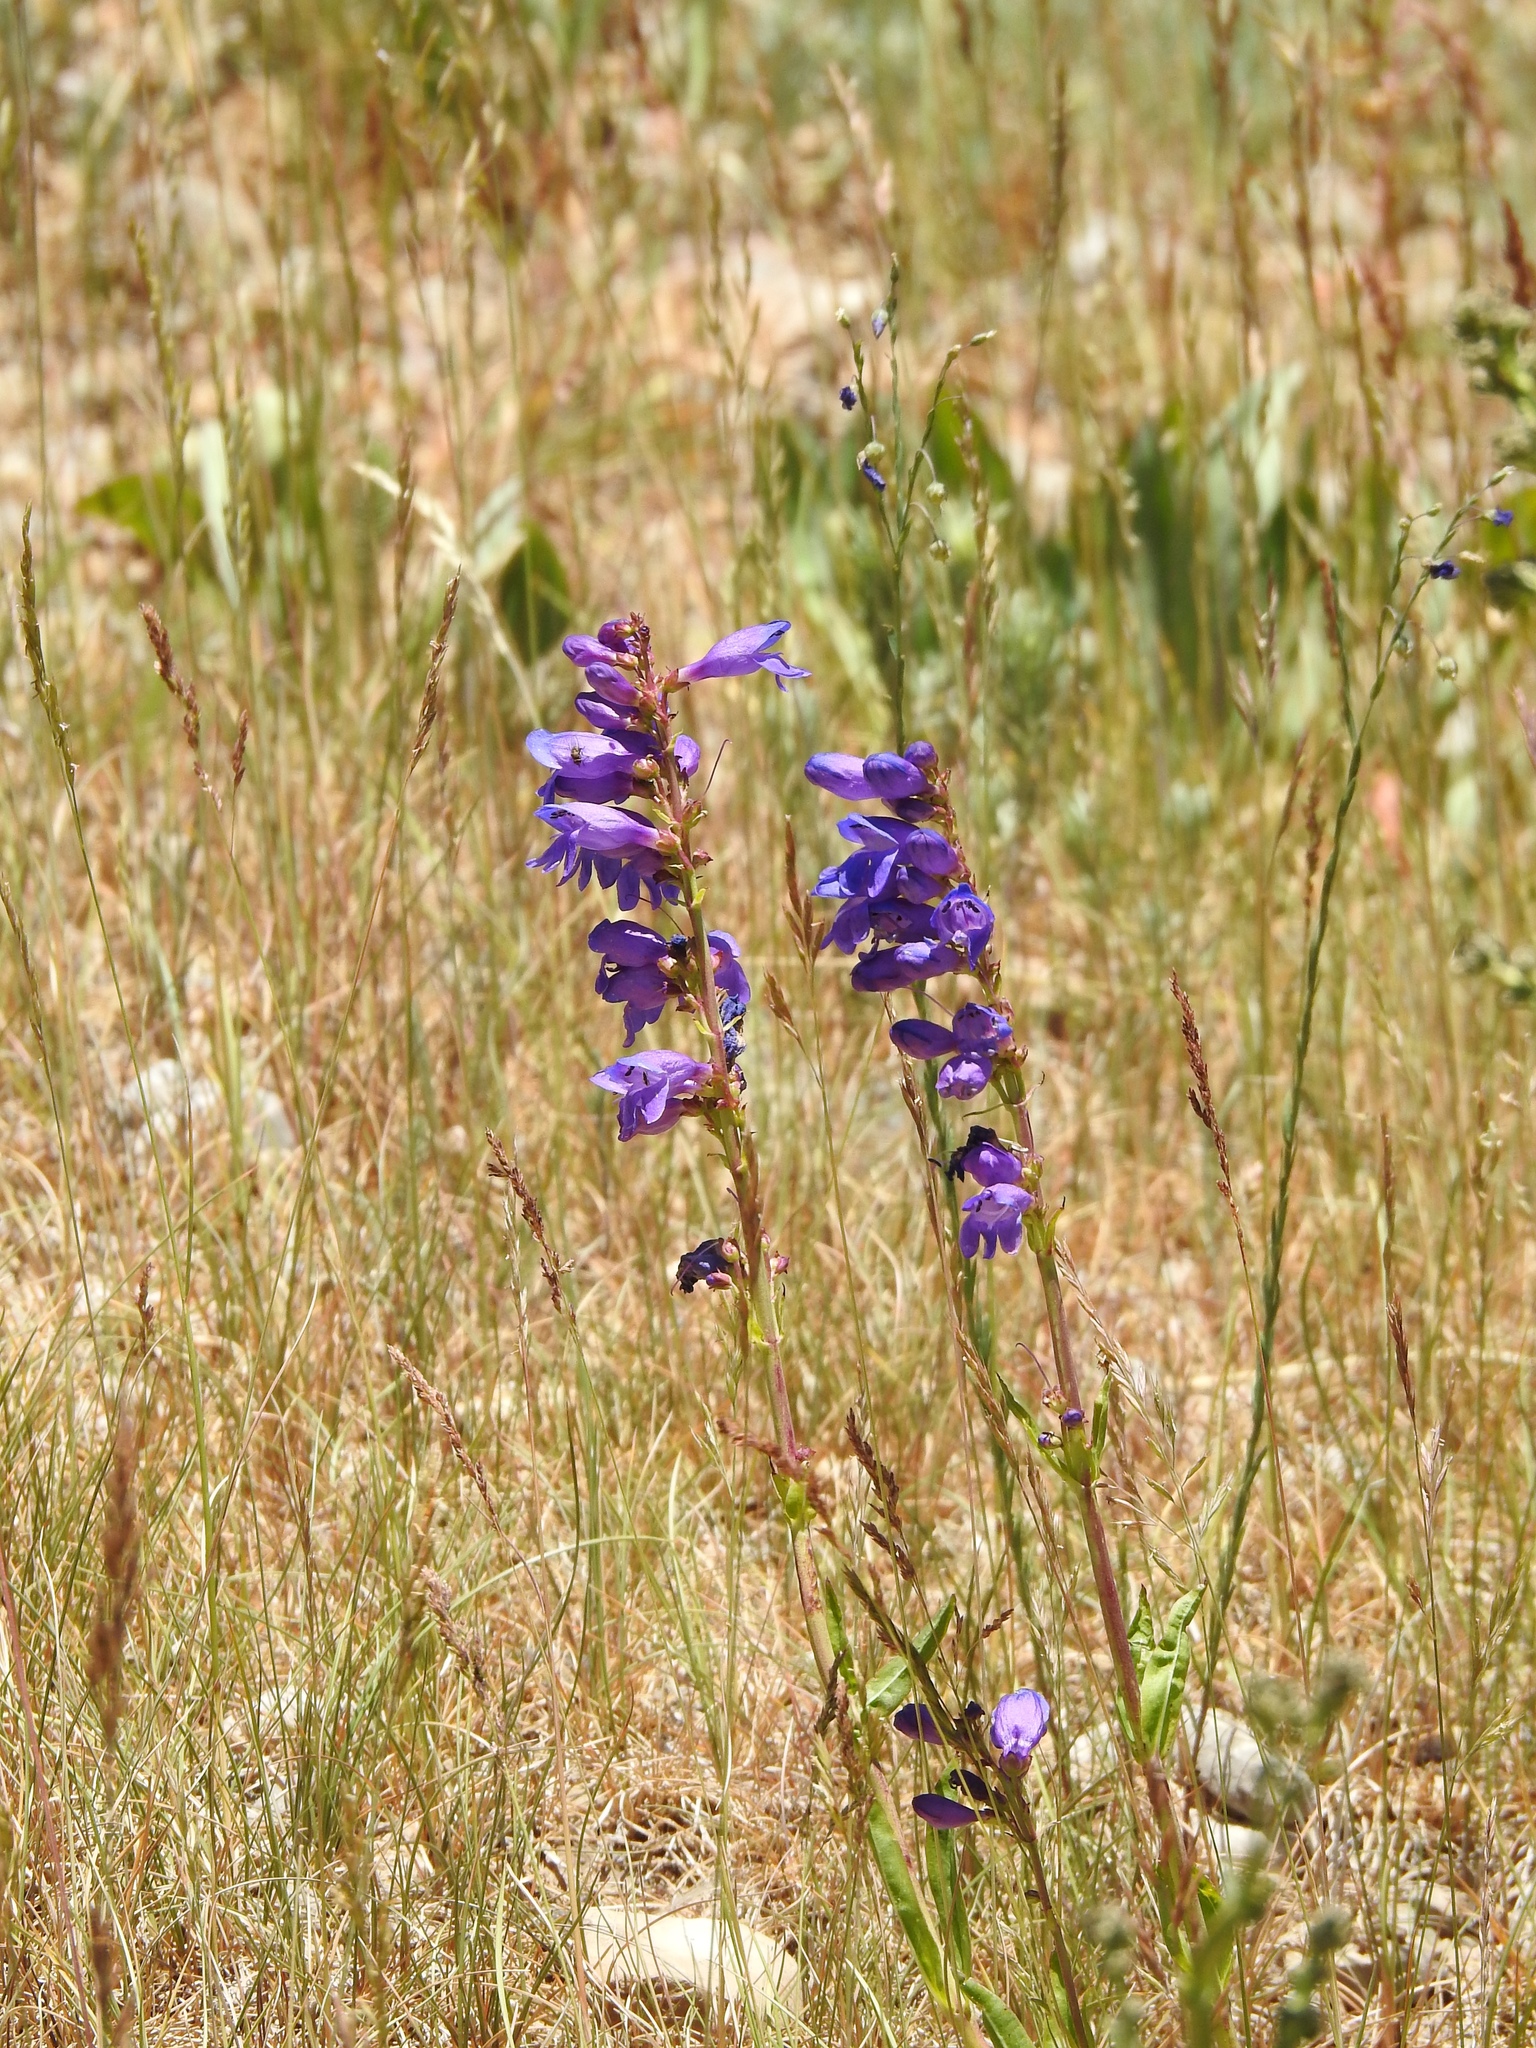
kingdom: Plantae
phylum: Tracheophyta
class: Magnoliopsida
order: Lamiales
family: Plantaginaceae
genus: Penstemon
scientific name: Penstemon strictus
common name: Rocky mountain penstemon
